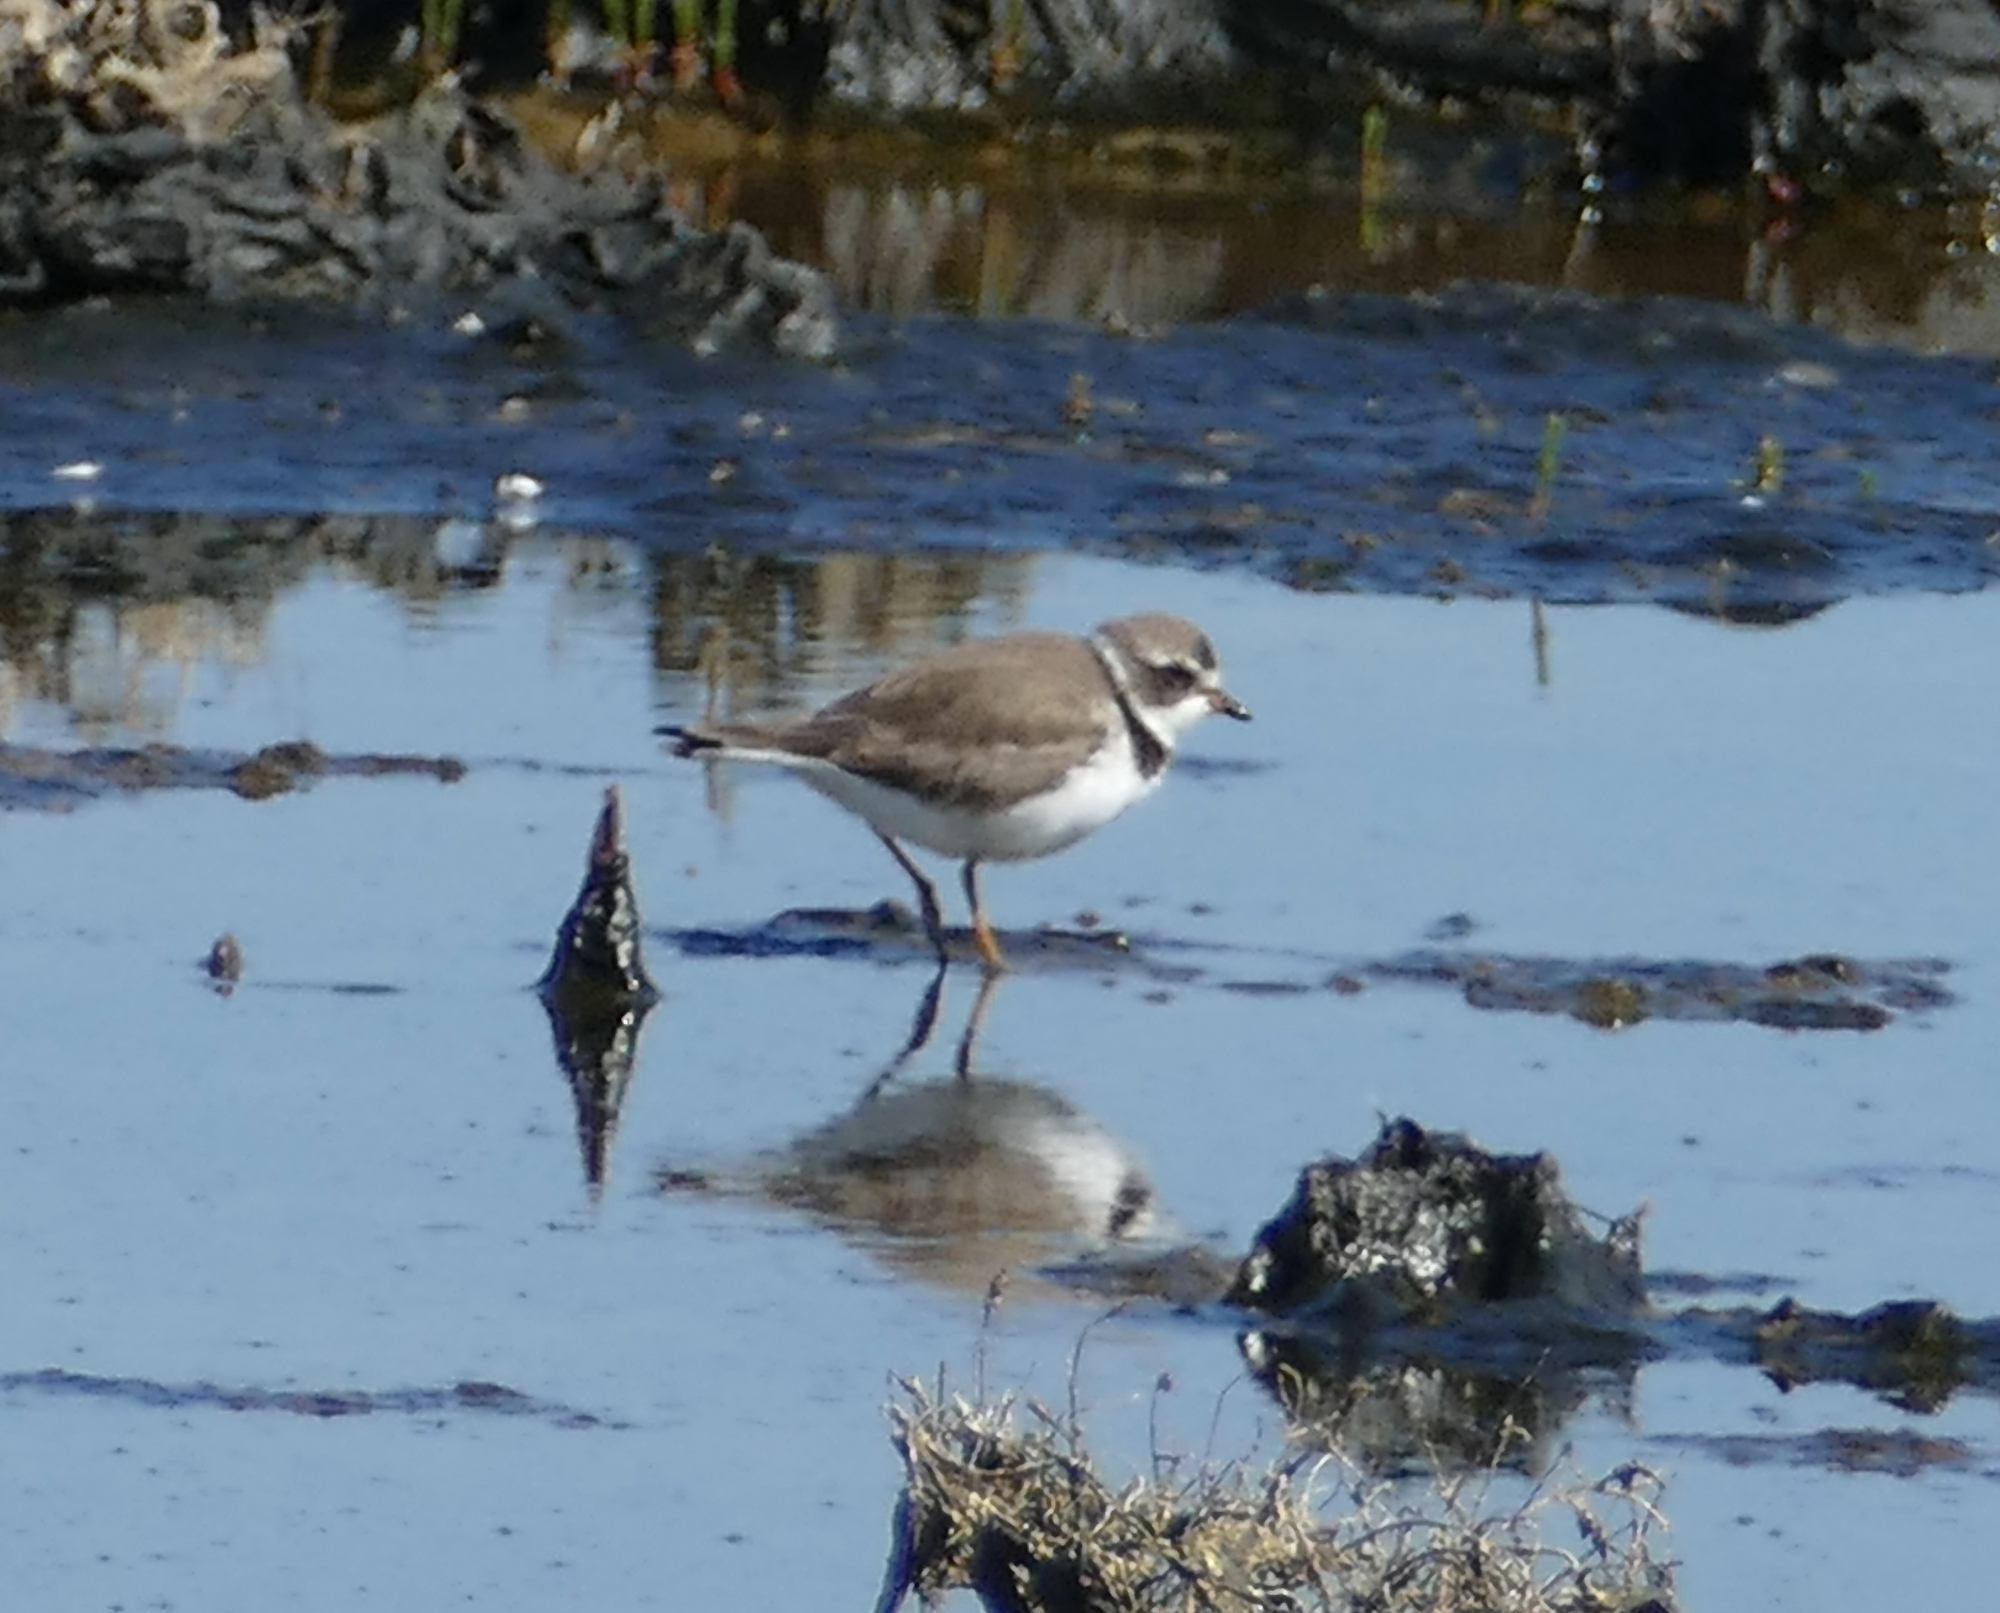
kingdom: Animalia
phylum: Chordata
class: Aves
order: Charadriiformes
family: Charadriidae
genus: Charadrius
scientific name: Charadrius semipalmatus
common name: Semipalmated plover
